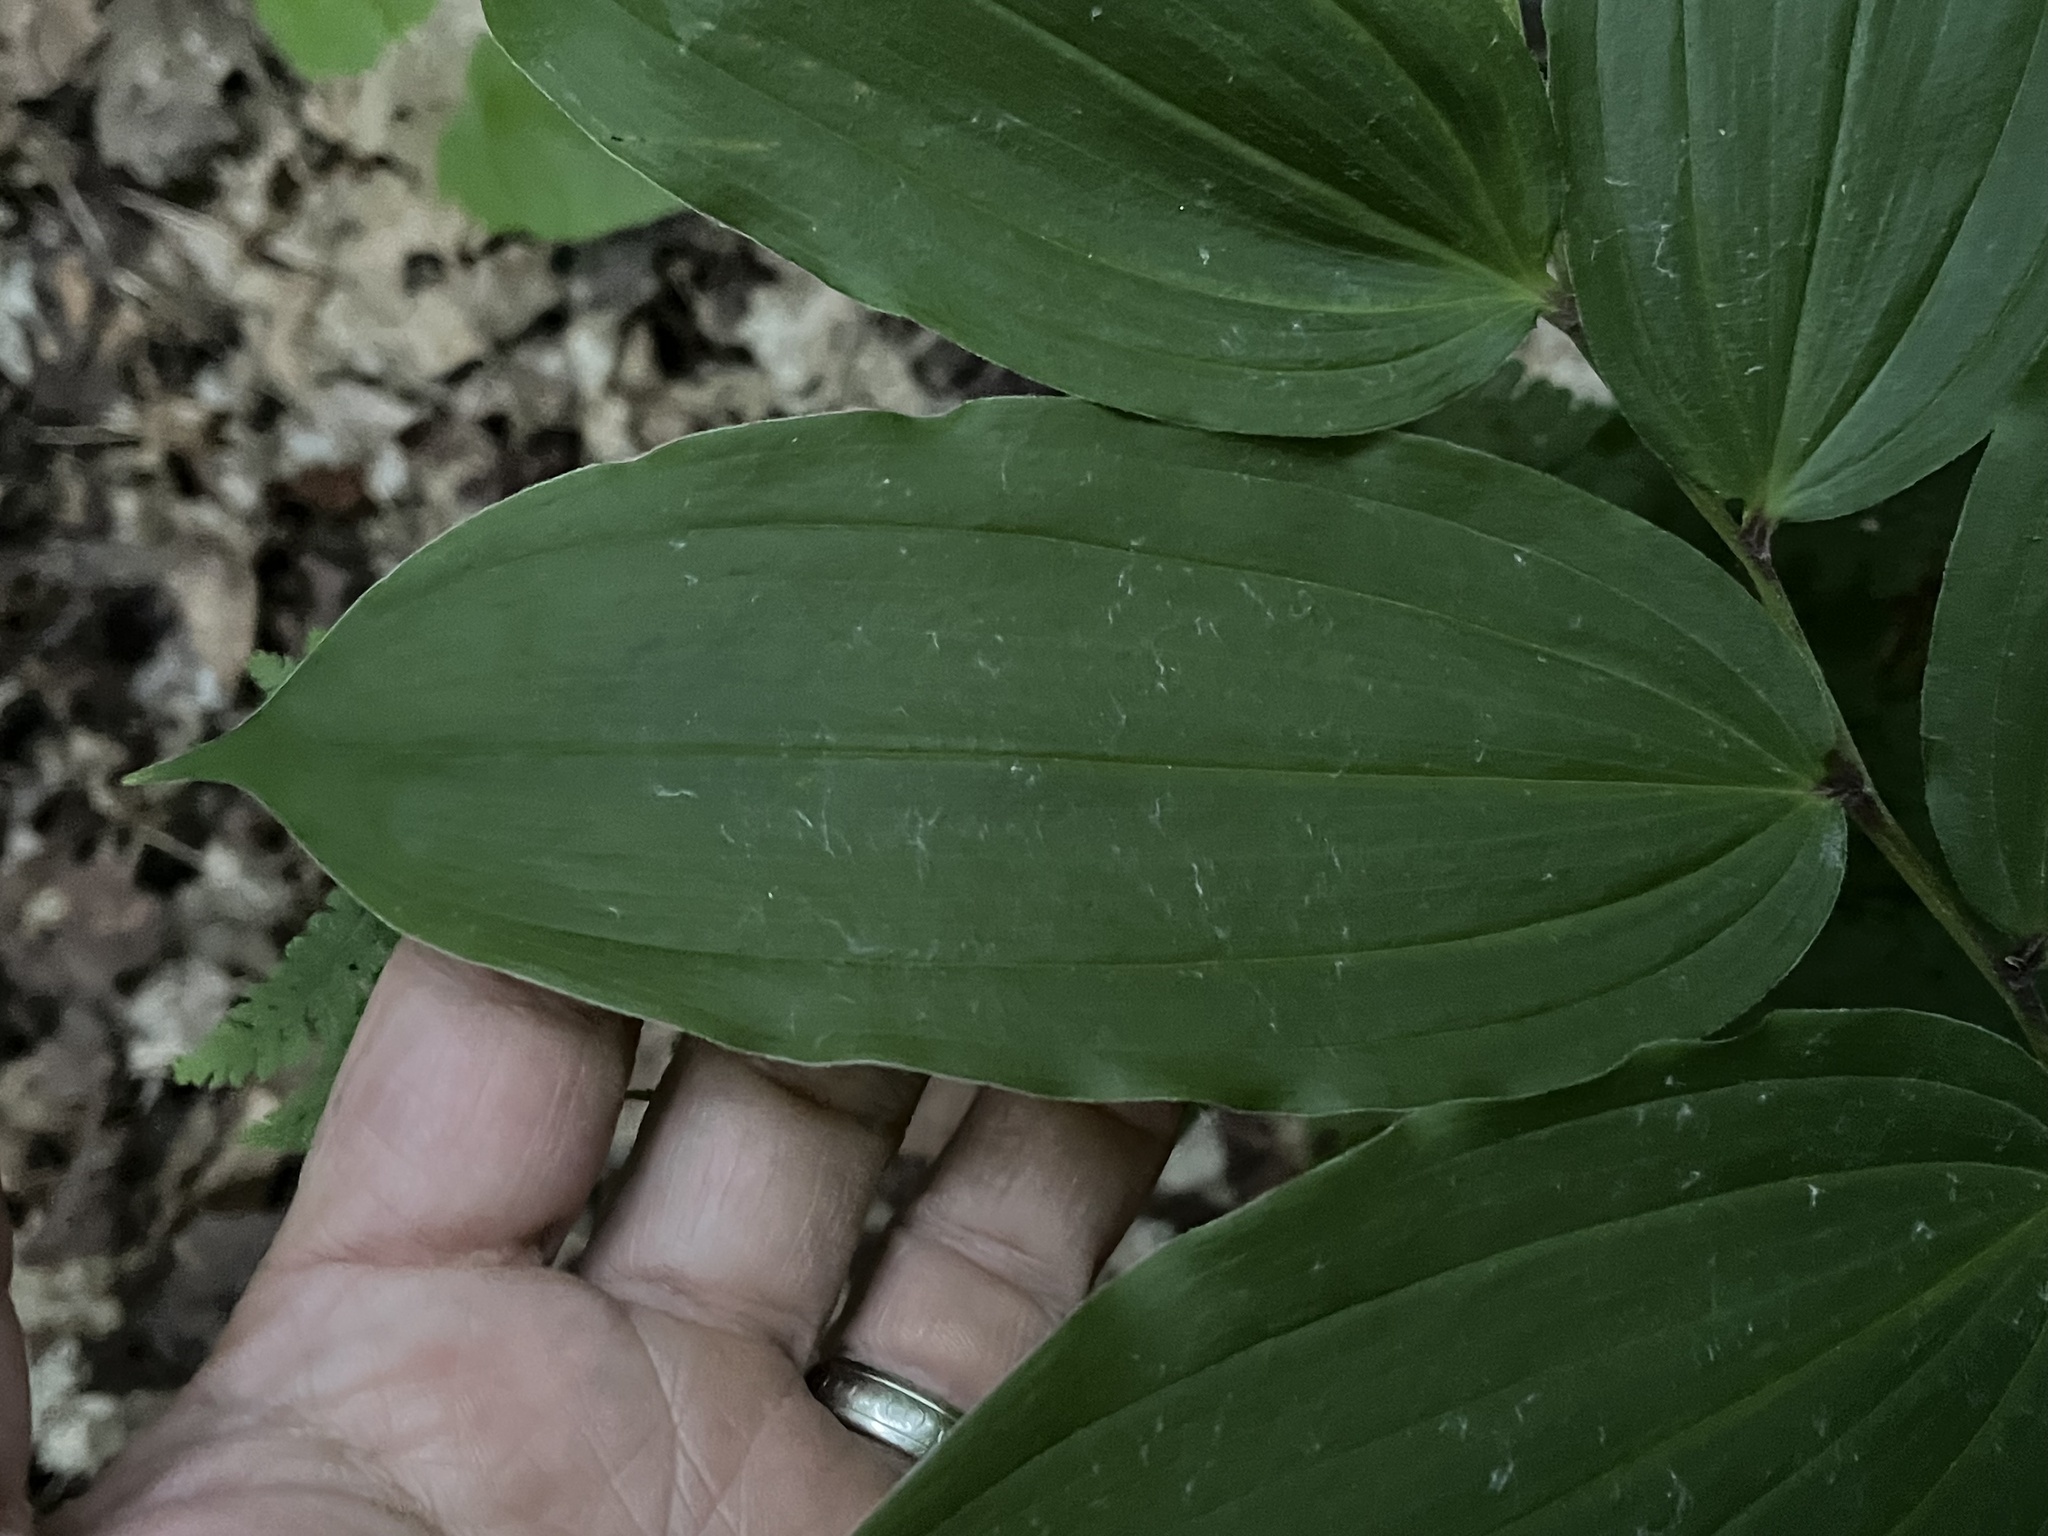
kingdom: Plantae
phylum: Tracheophyta
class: Liliopsida
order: Asparagales
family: Asparagaceae
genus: Maianthemum
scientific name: Maianthemum racemosum
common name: False spikenard
